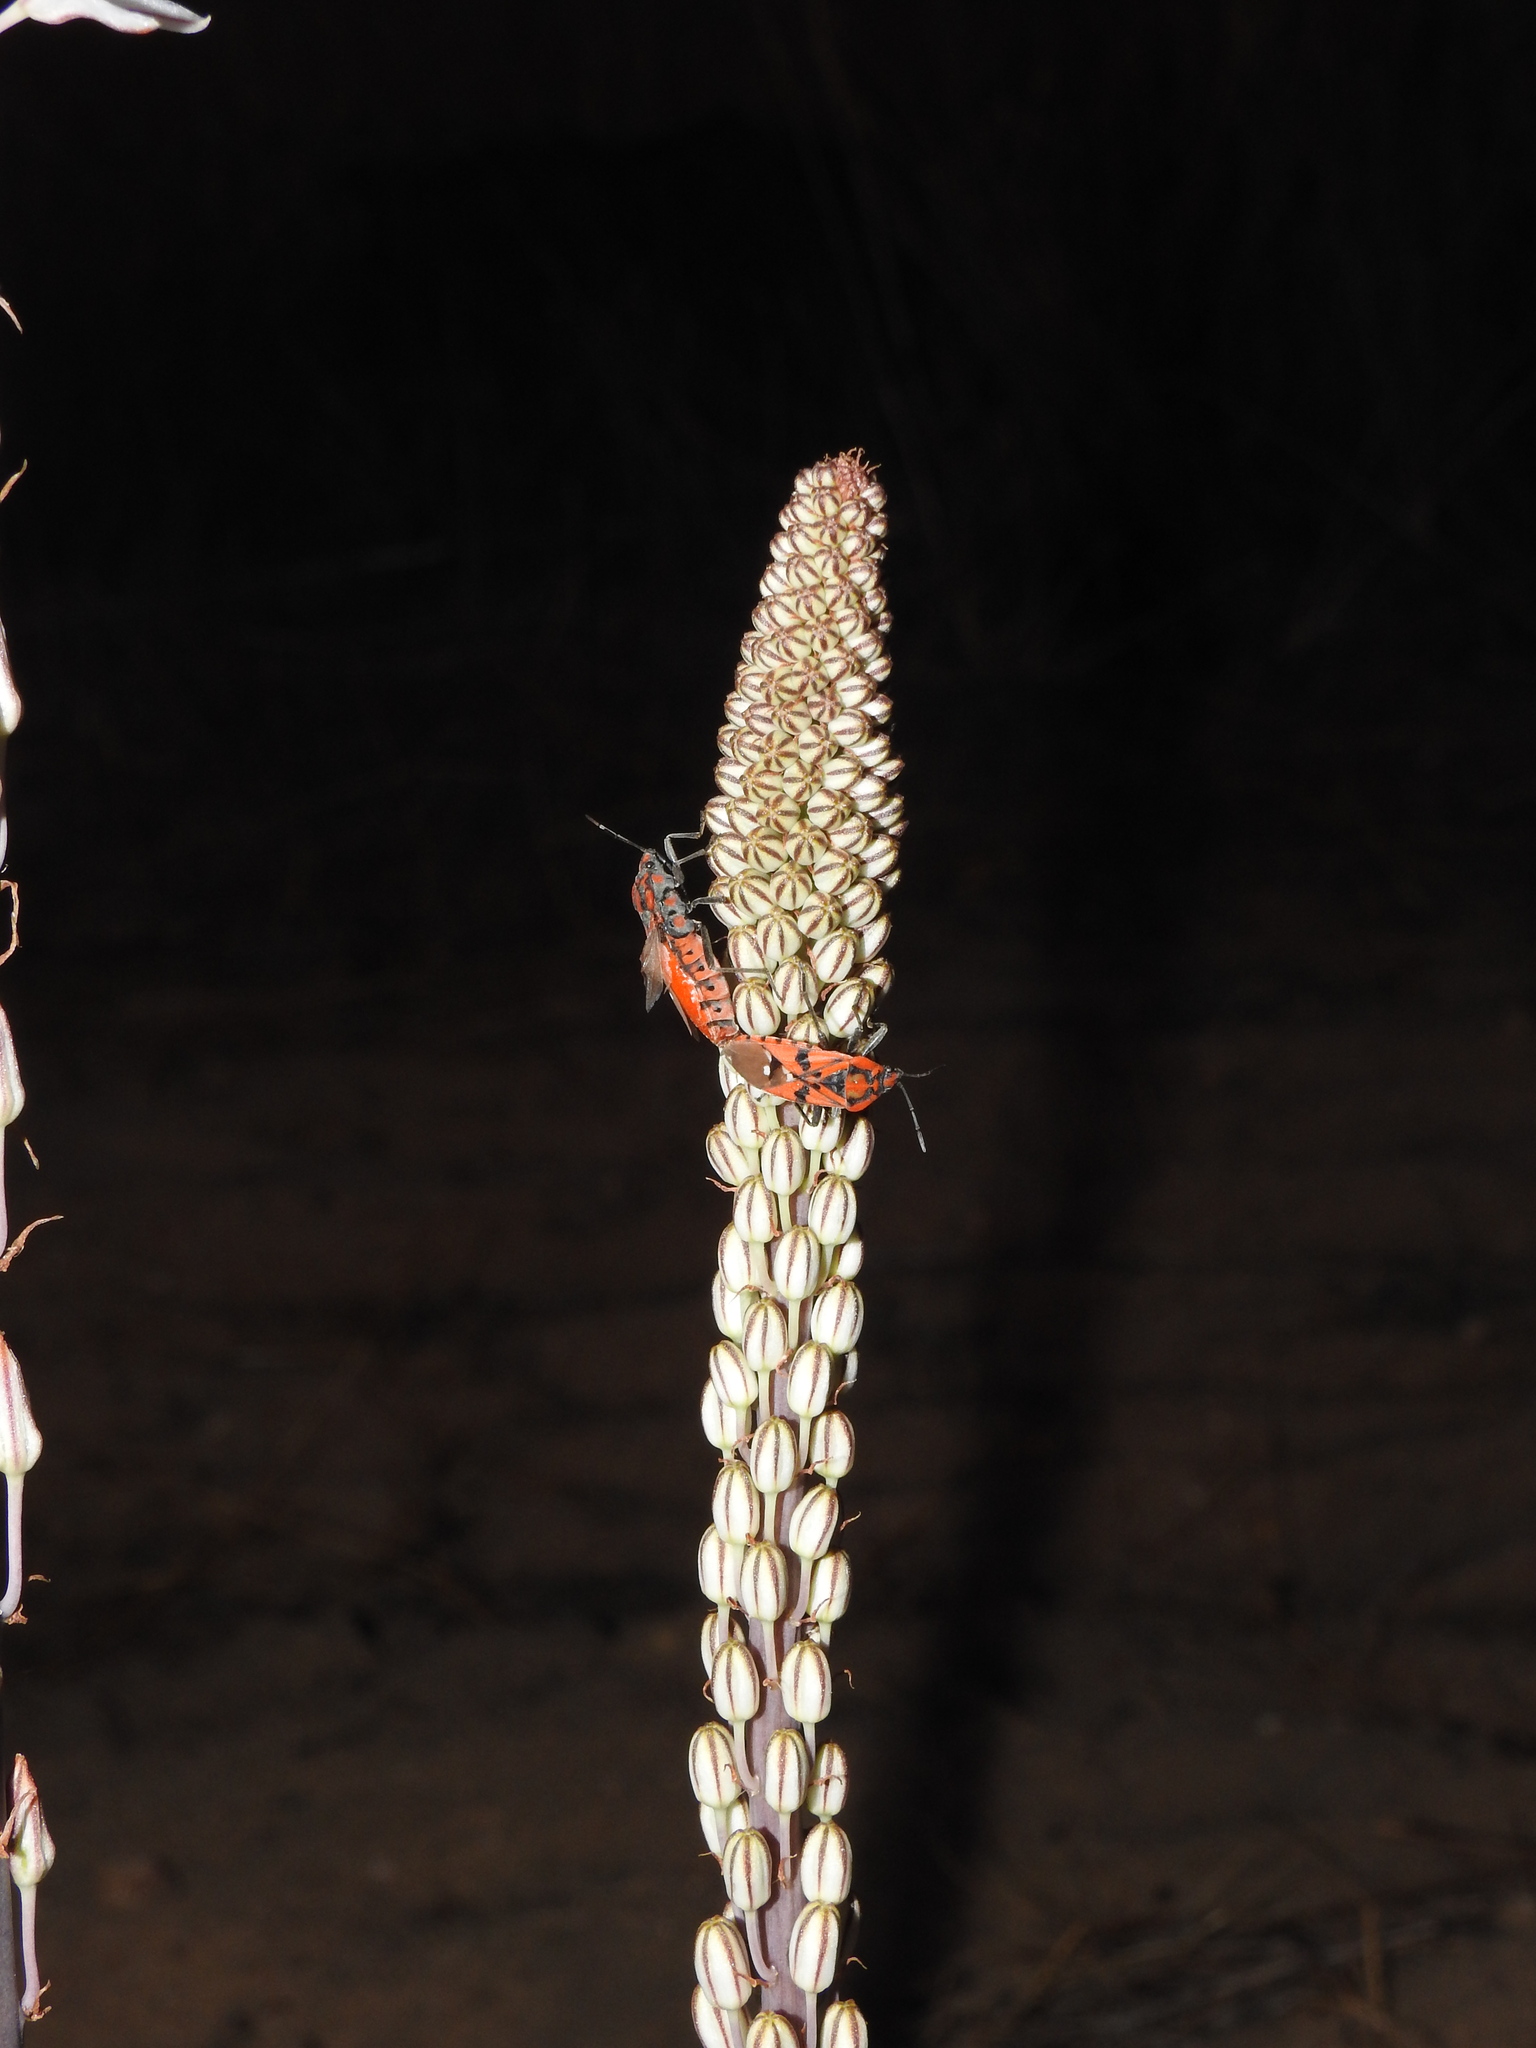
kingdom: Animalia
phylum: Arthropoda
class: Insecta
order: Hemiptera
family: Lygaeidae
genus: Spilostethus
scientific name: Spilostethus pandurus
